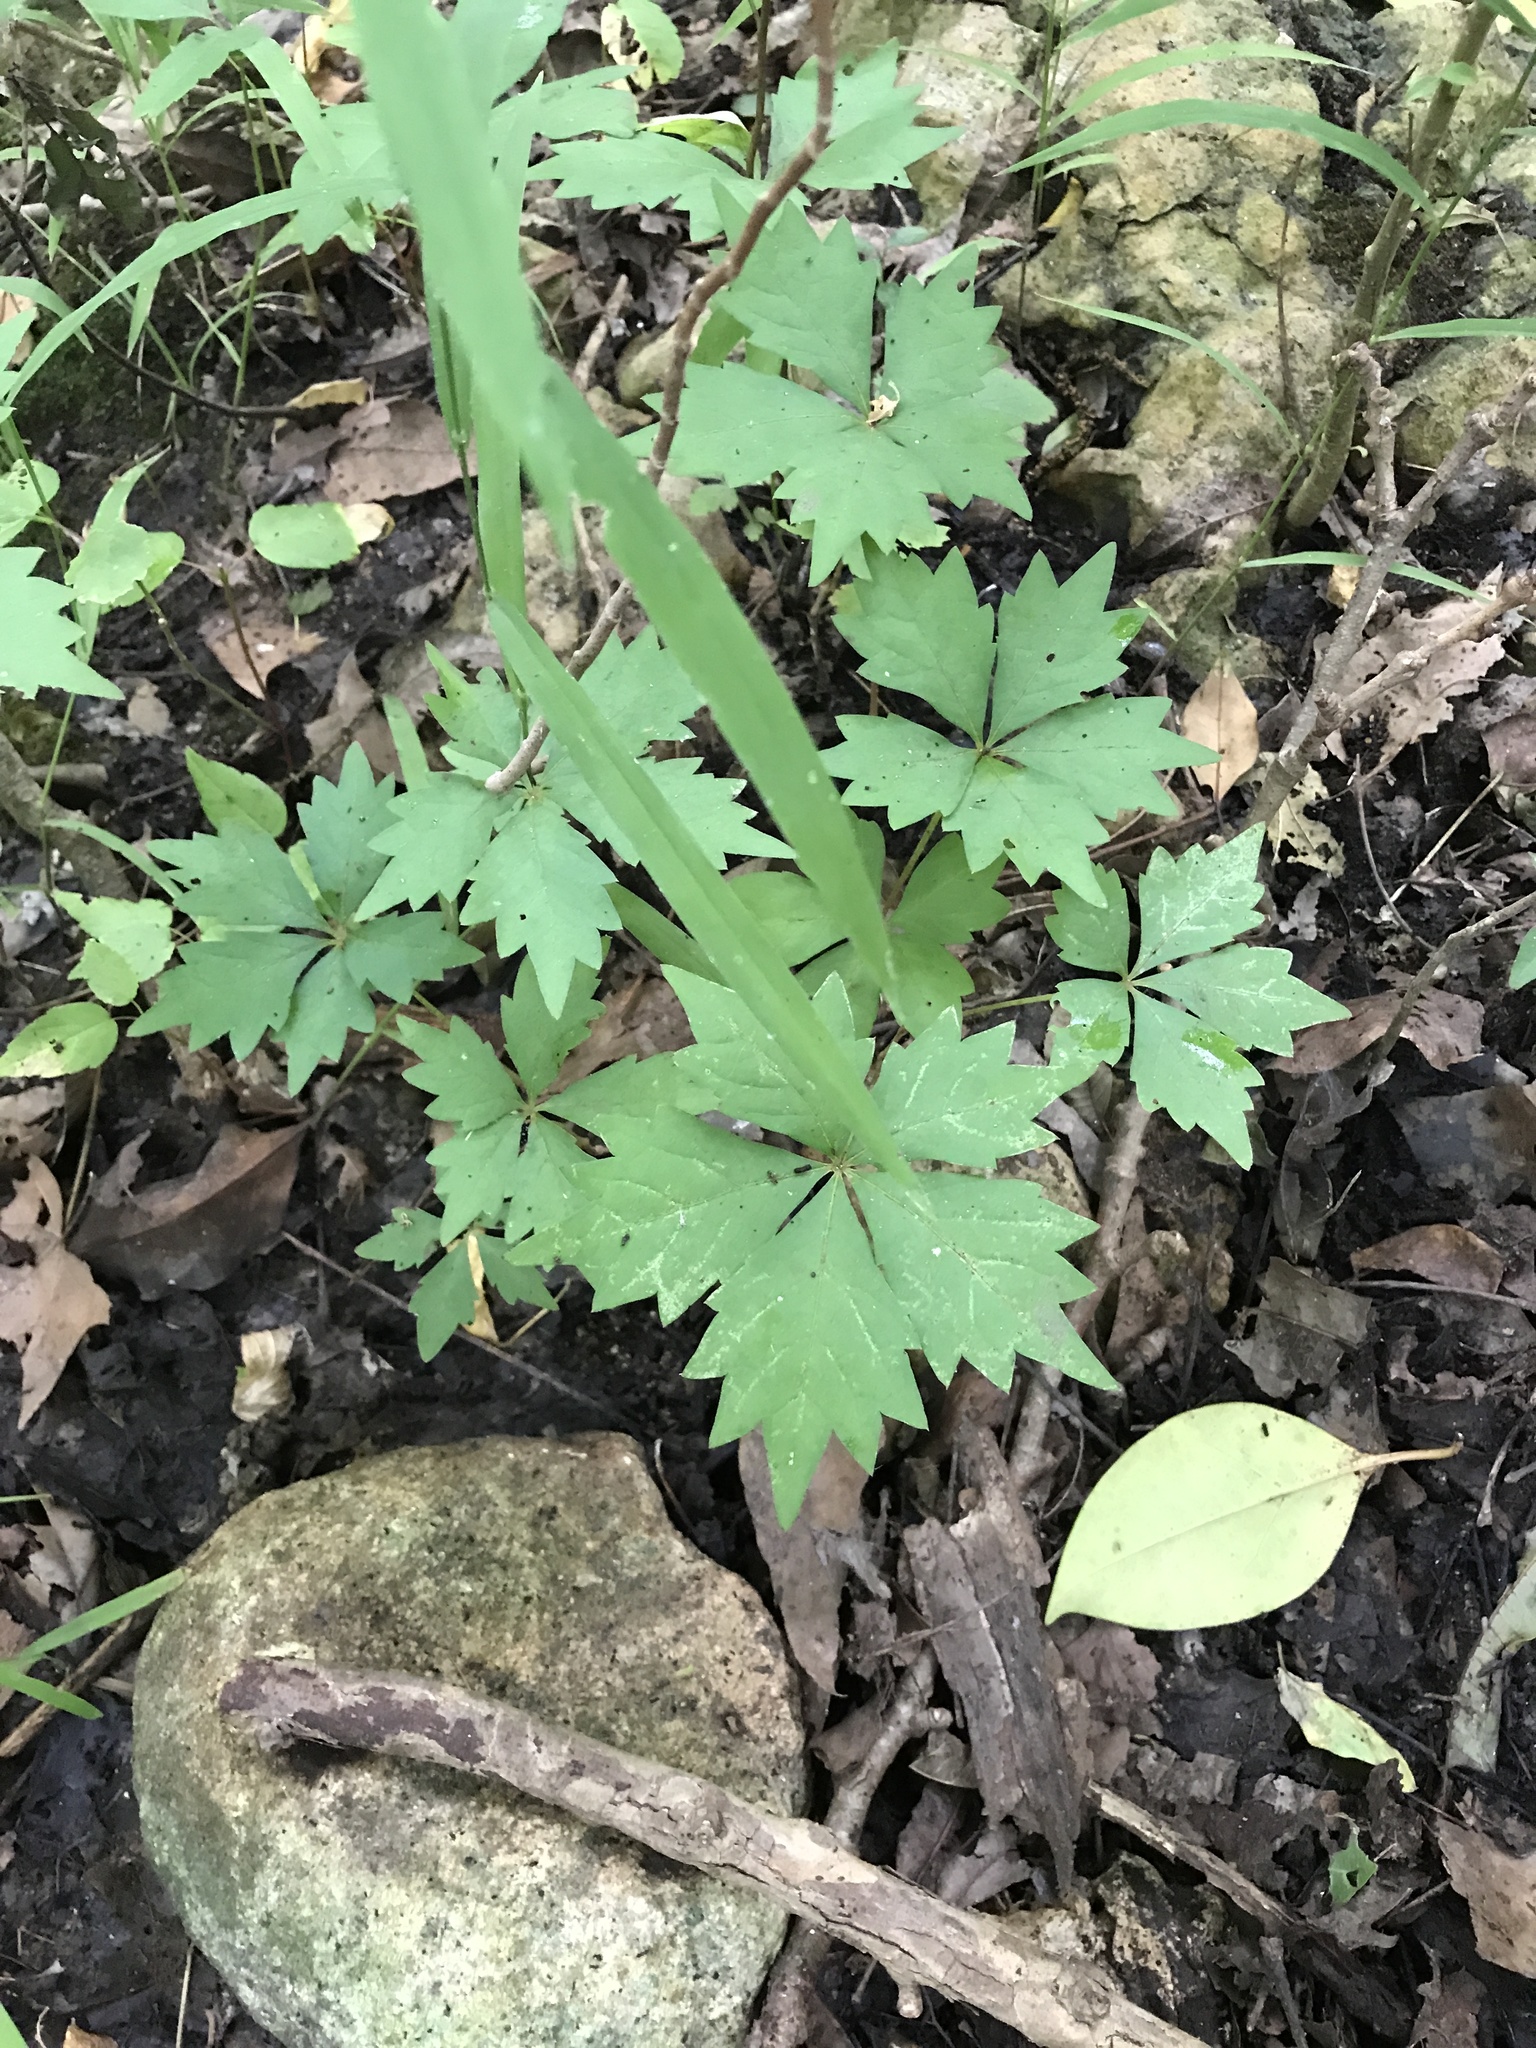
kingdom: Plantae
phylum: Tracheophyta
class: Magnoliopsida
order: Vitales
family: Vitaceae
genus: Parthenocissus
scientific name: Parthenocissus quinquefolia
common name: Virginia-creeper
